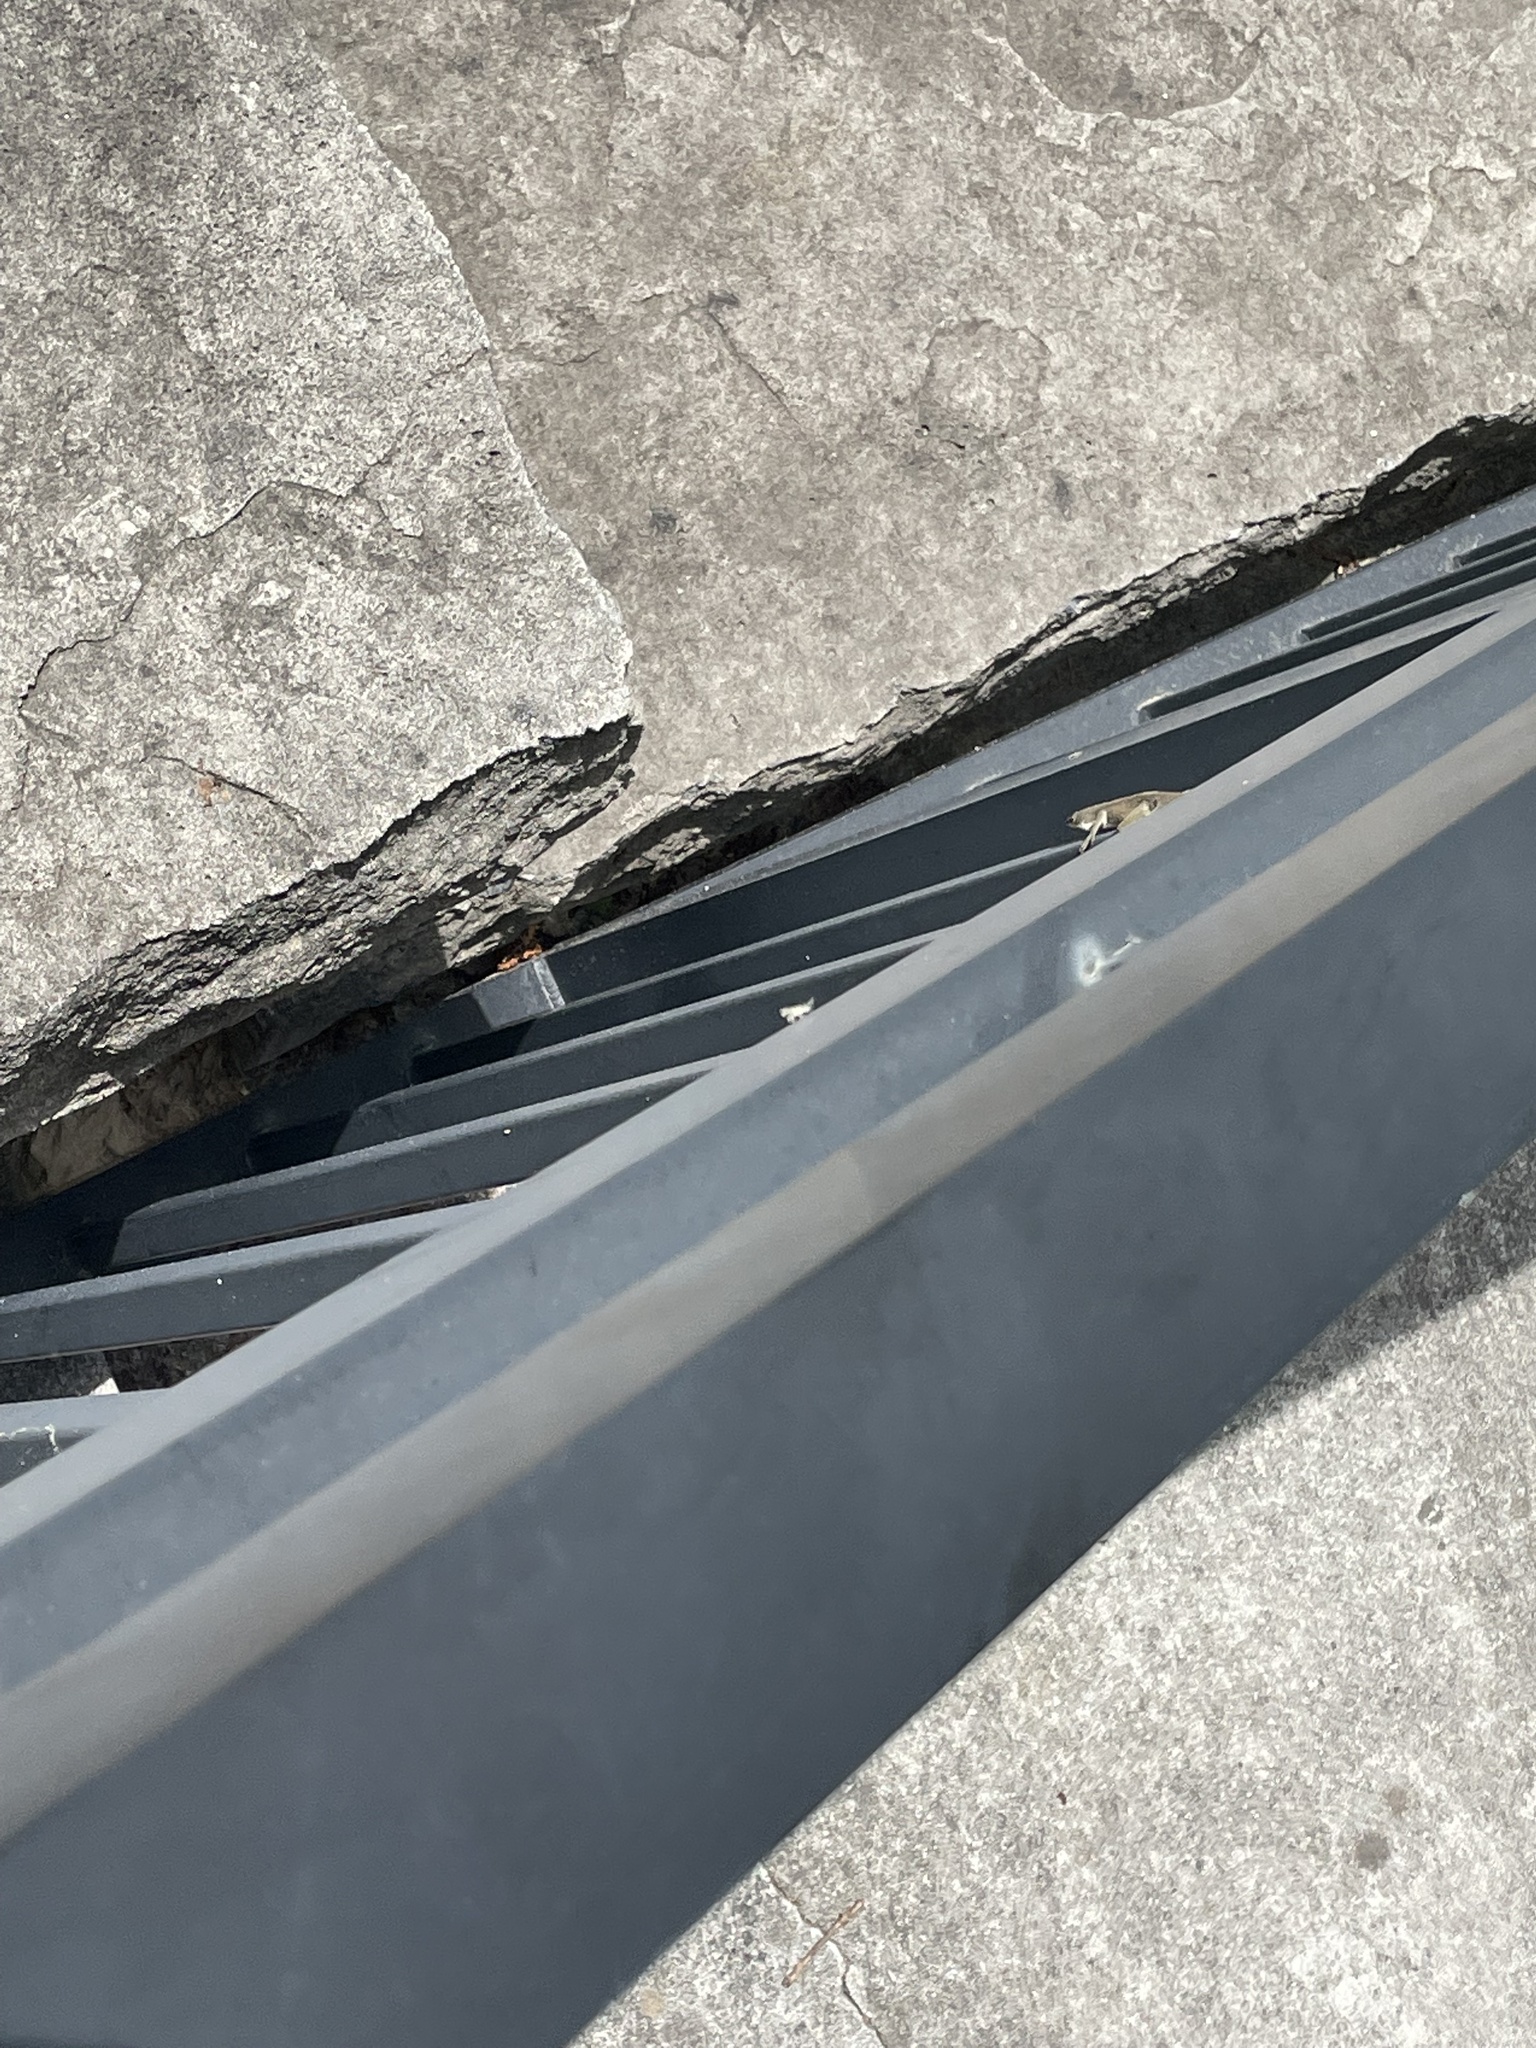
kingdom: Animalia
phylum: Chordata
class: Squamata
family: Dactyloidae
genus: Anolis
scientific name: Anolis carolinensis
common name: Green anole
